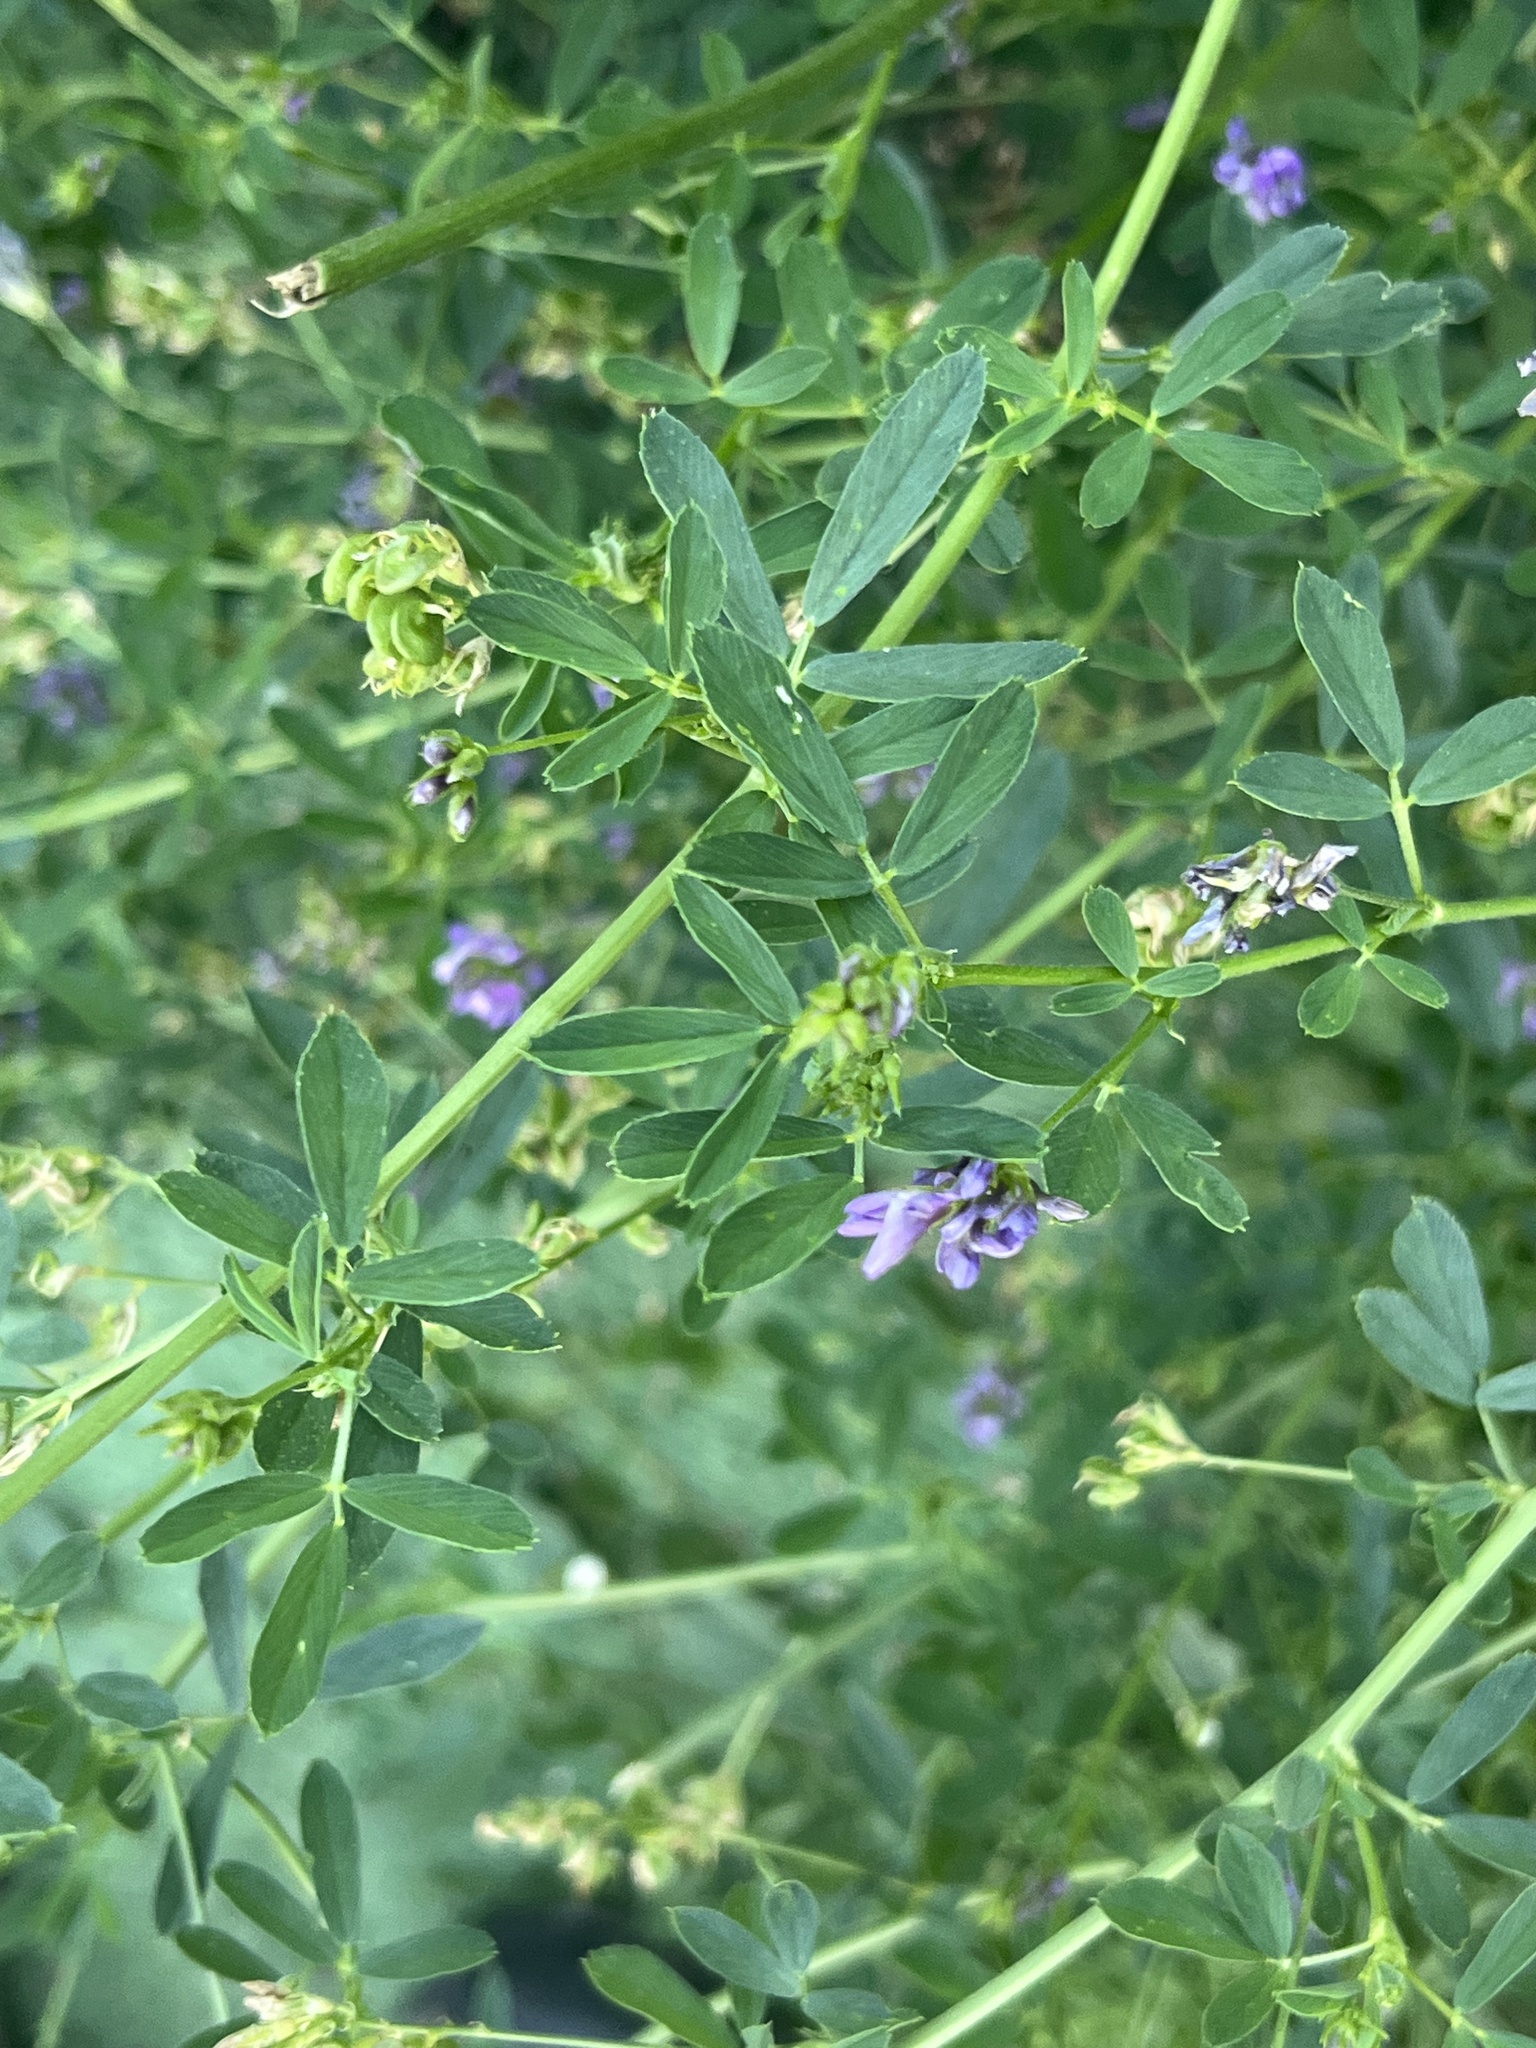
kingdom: Plantae
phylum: Tracheophyta
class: Magnoliopsida
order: Fabales
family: Fabaceae
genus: Medicago
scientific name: Medicago sativa
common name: Alfalfa
